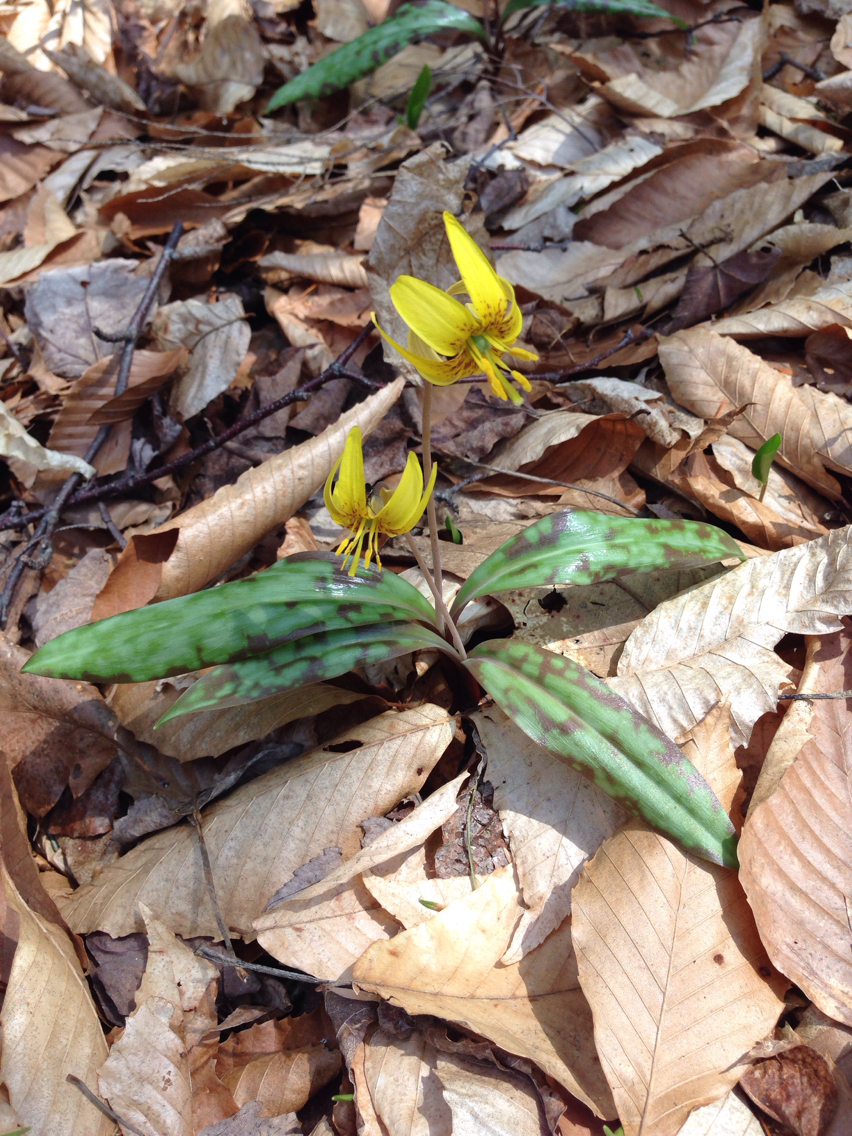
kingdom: Plantae
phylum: Tracheophyta
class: Liliopsida
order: Liliales
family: Liliaceae
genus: Erythronium
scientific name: Erythronium americanum
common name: Yellow adder's-tongue
